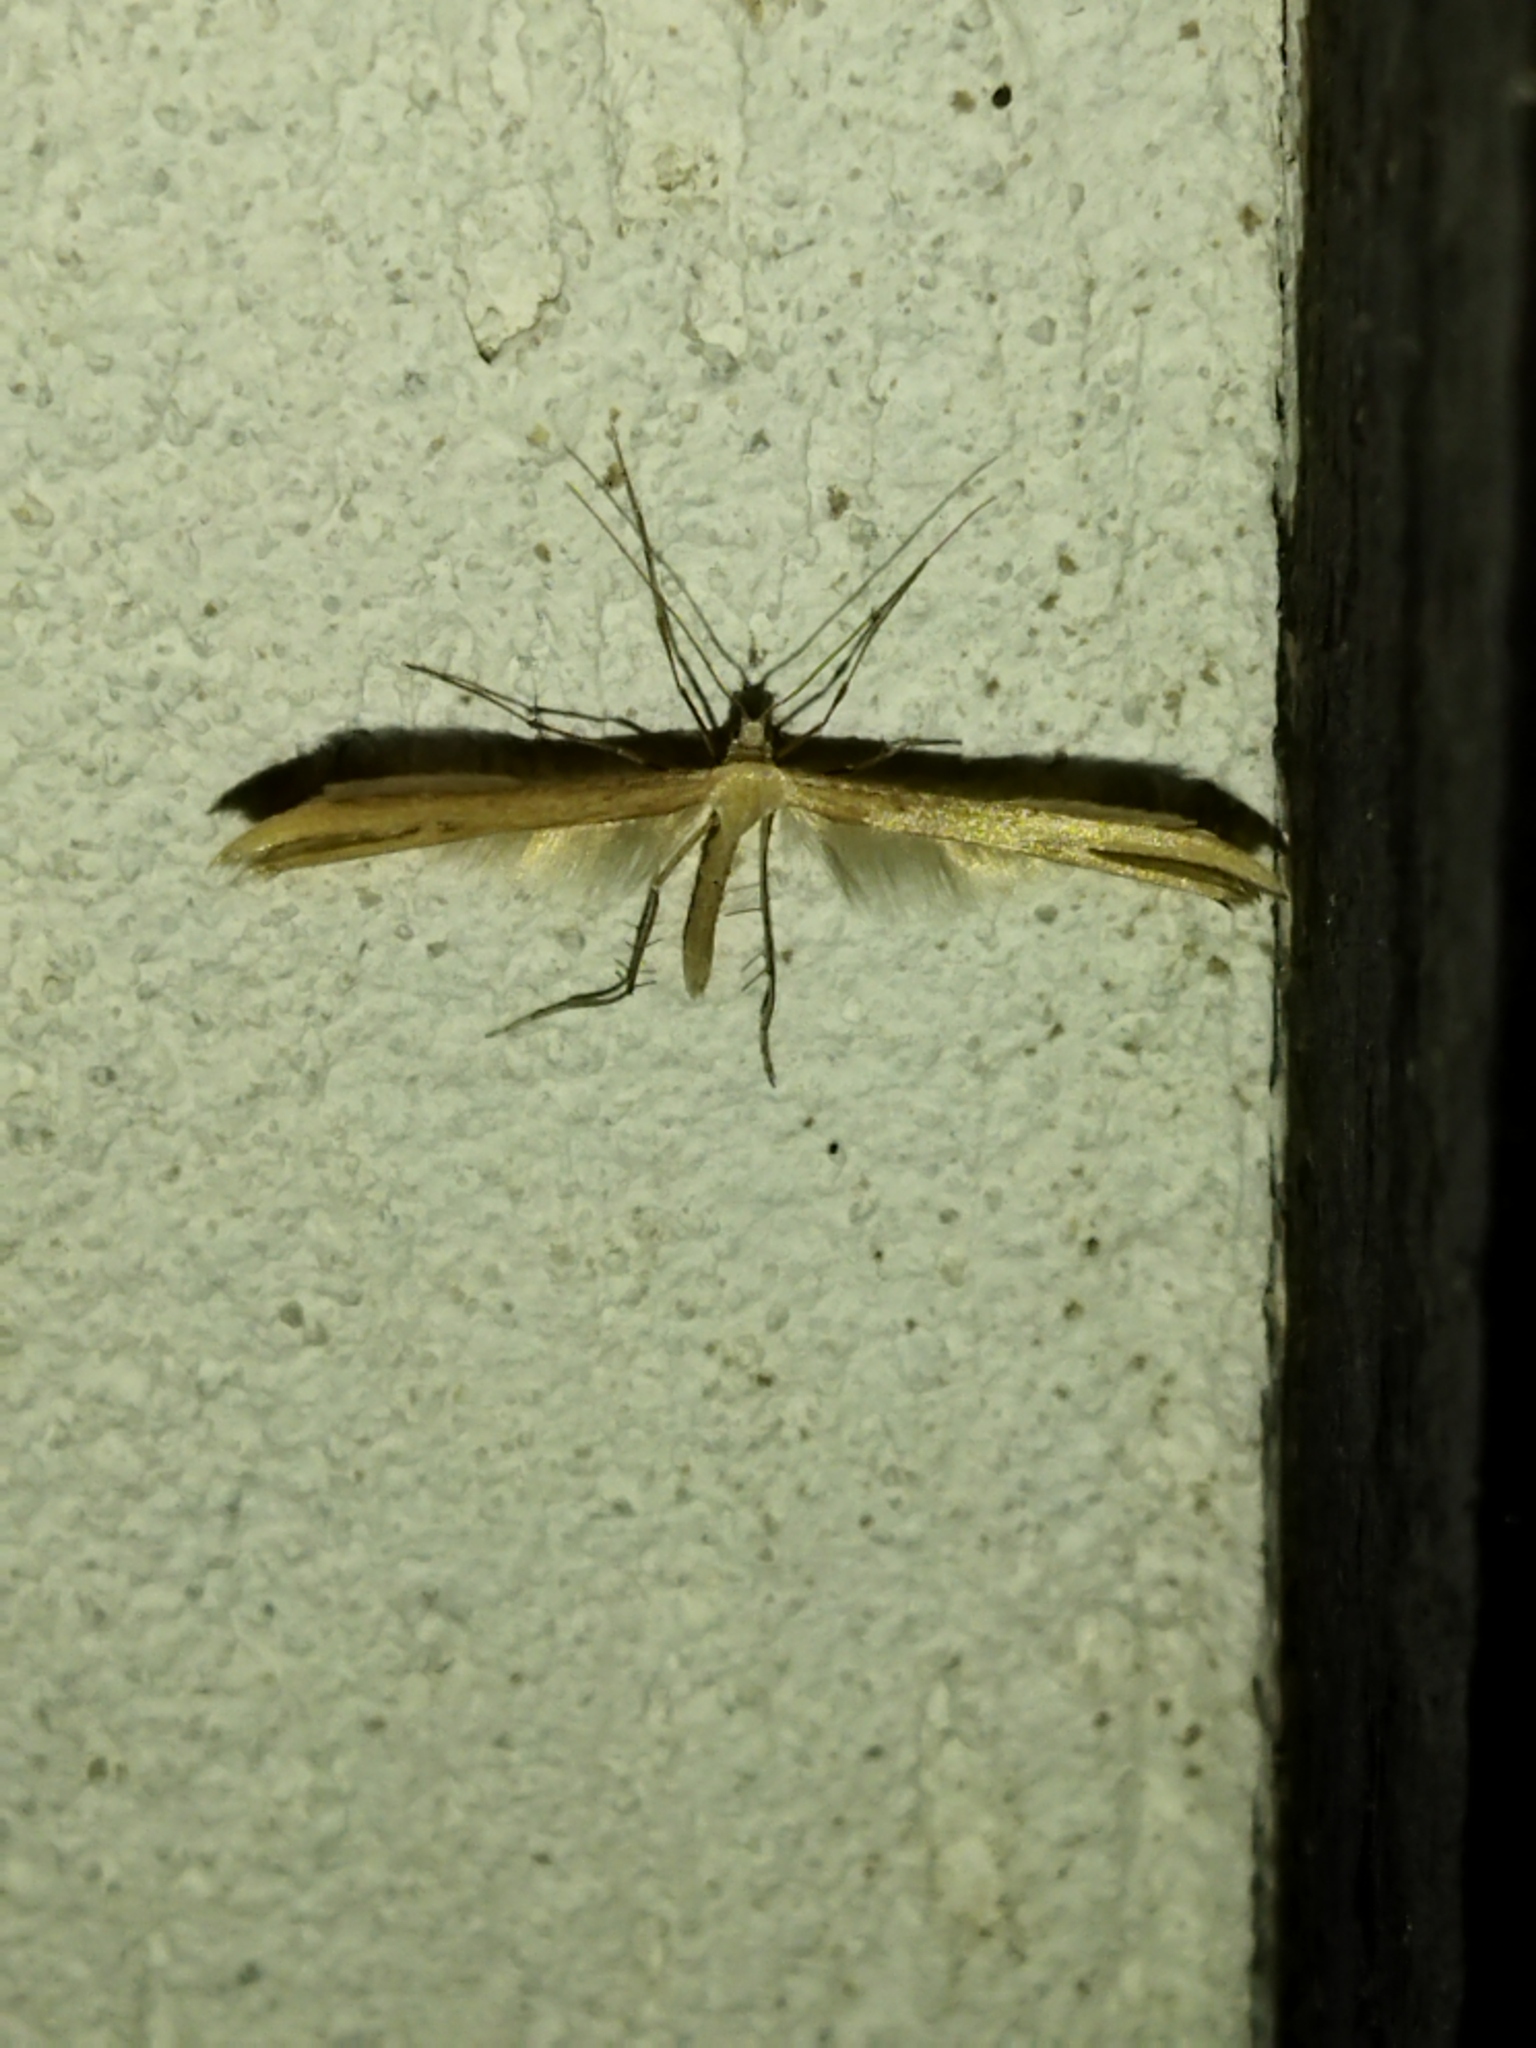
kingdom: Animalia
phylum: Arthropoda
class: Insecta
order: Lepidoptera
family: Pterophoridae
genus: Emmelina
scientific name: Emmelina monodactyla
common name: Common plume
